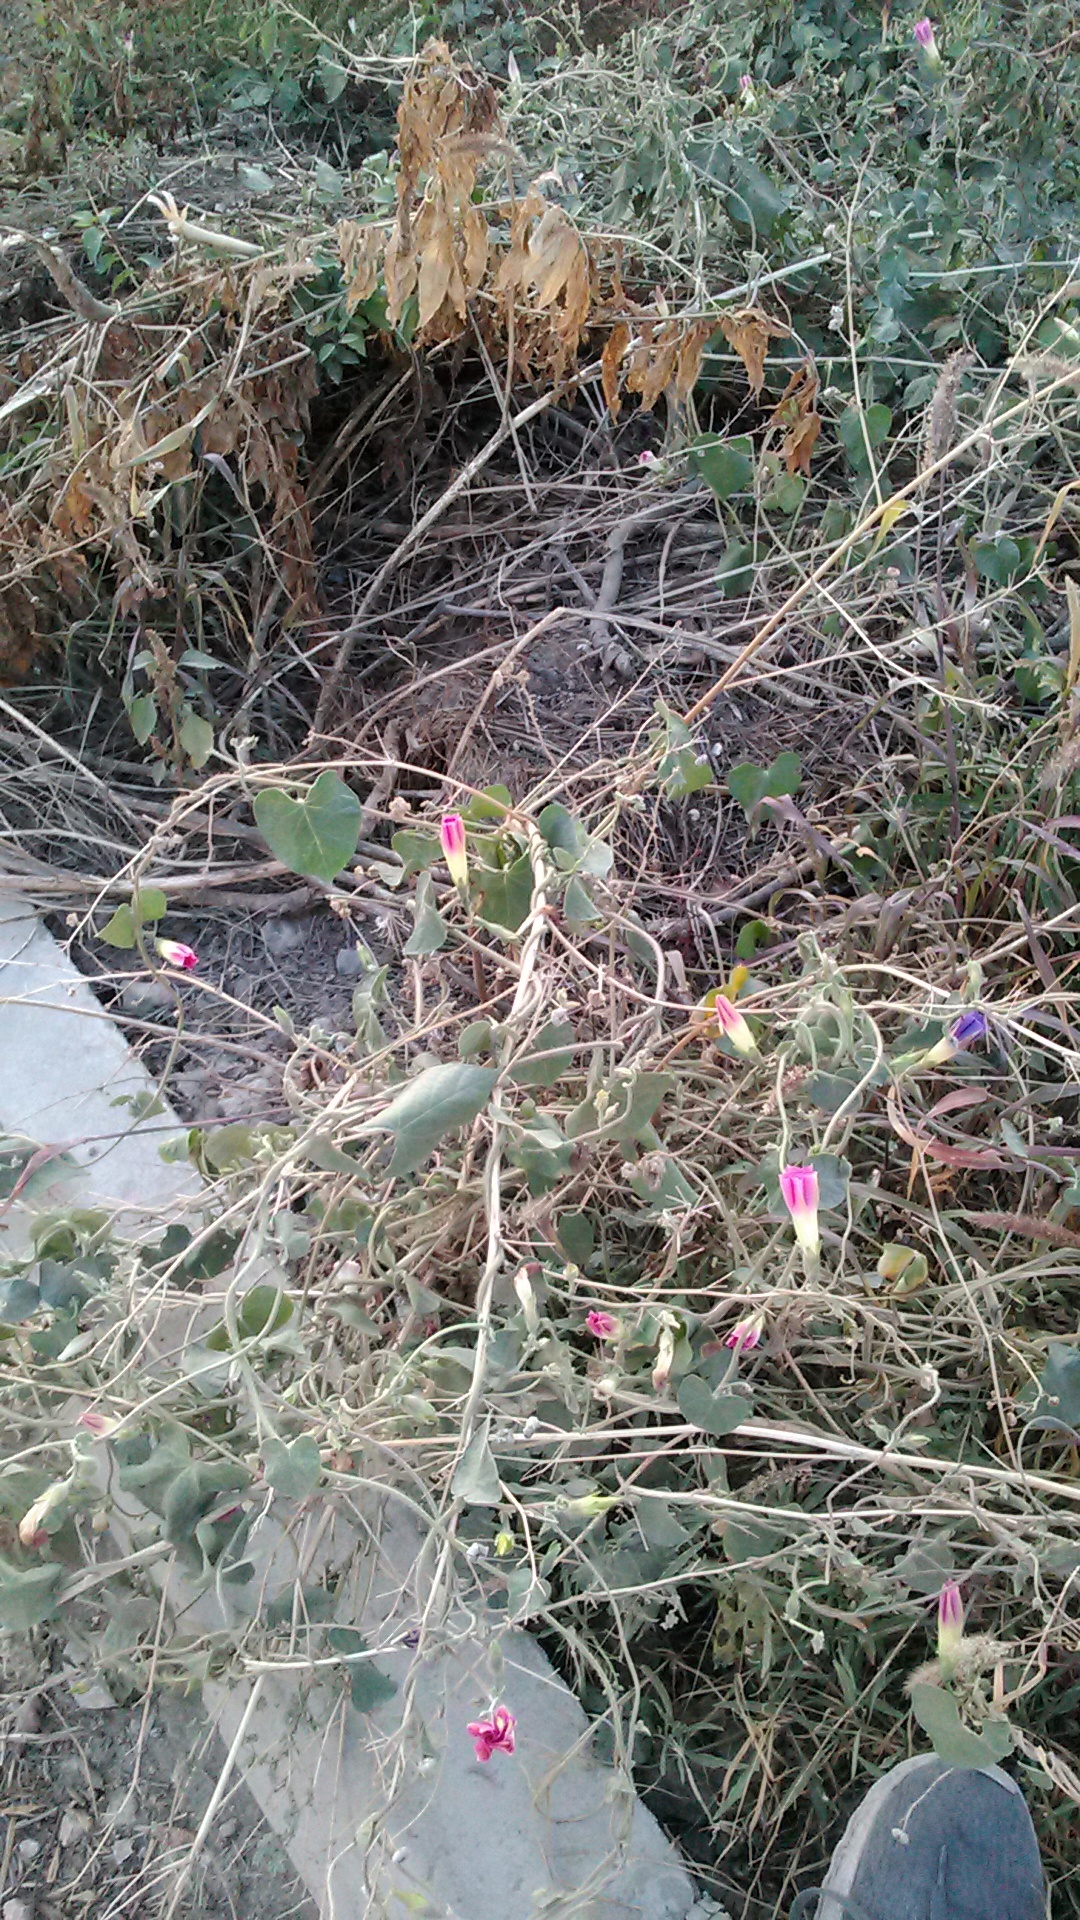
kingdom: Plantae
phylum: Tracheophyta
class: Magnoliopsida
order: Solanales
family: Convolvulaceae
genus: Ipomoea
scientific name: Ipomoea purpurea
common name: Common morning-glory
